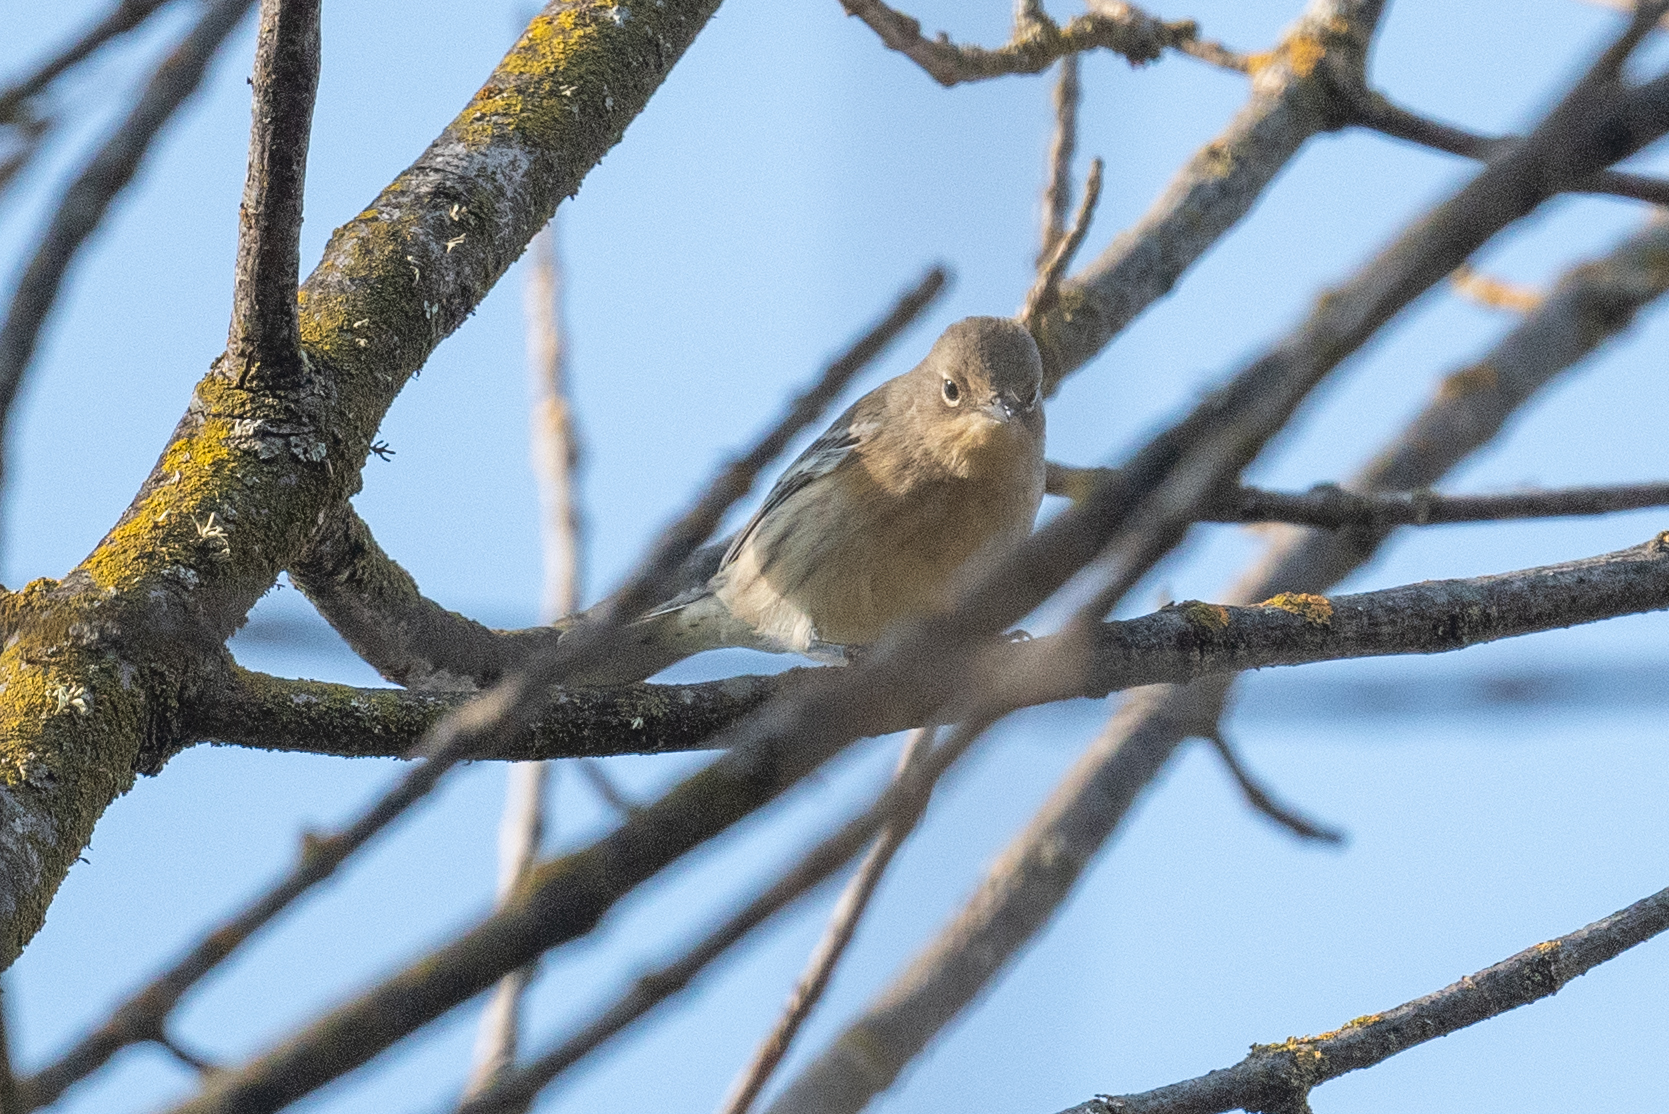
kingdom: Animalia
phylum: Chordata
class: Aves
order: Passeriformes
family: Parulidae
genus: Setophaga
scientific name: Setophaga coronata
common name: Myrtle warbler
